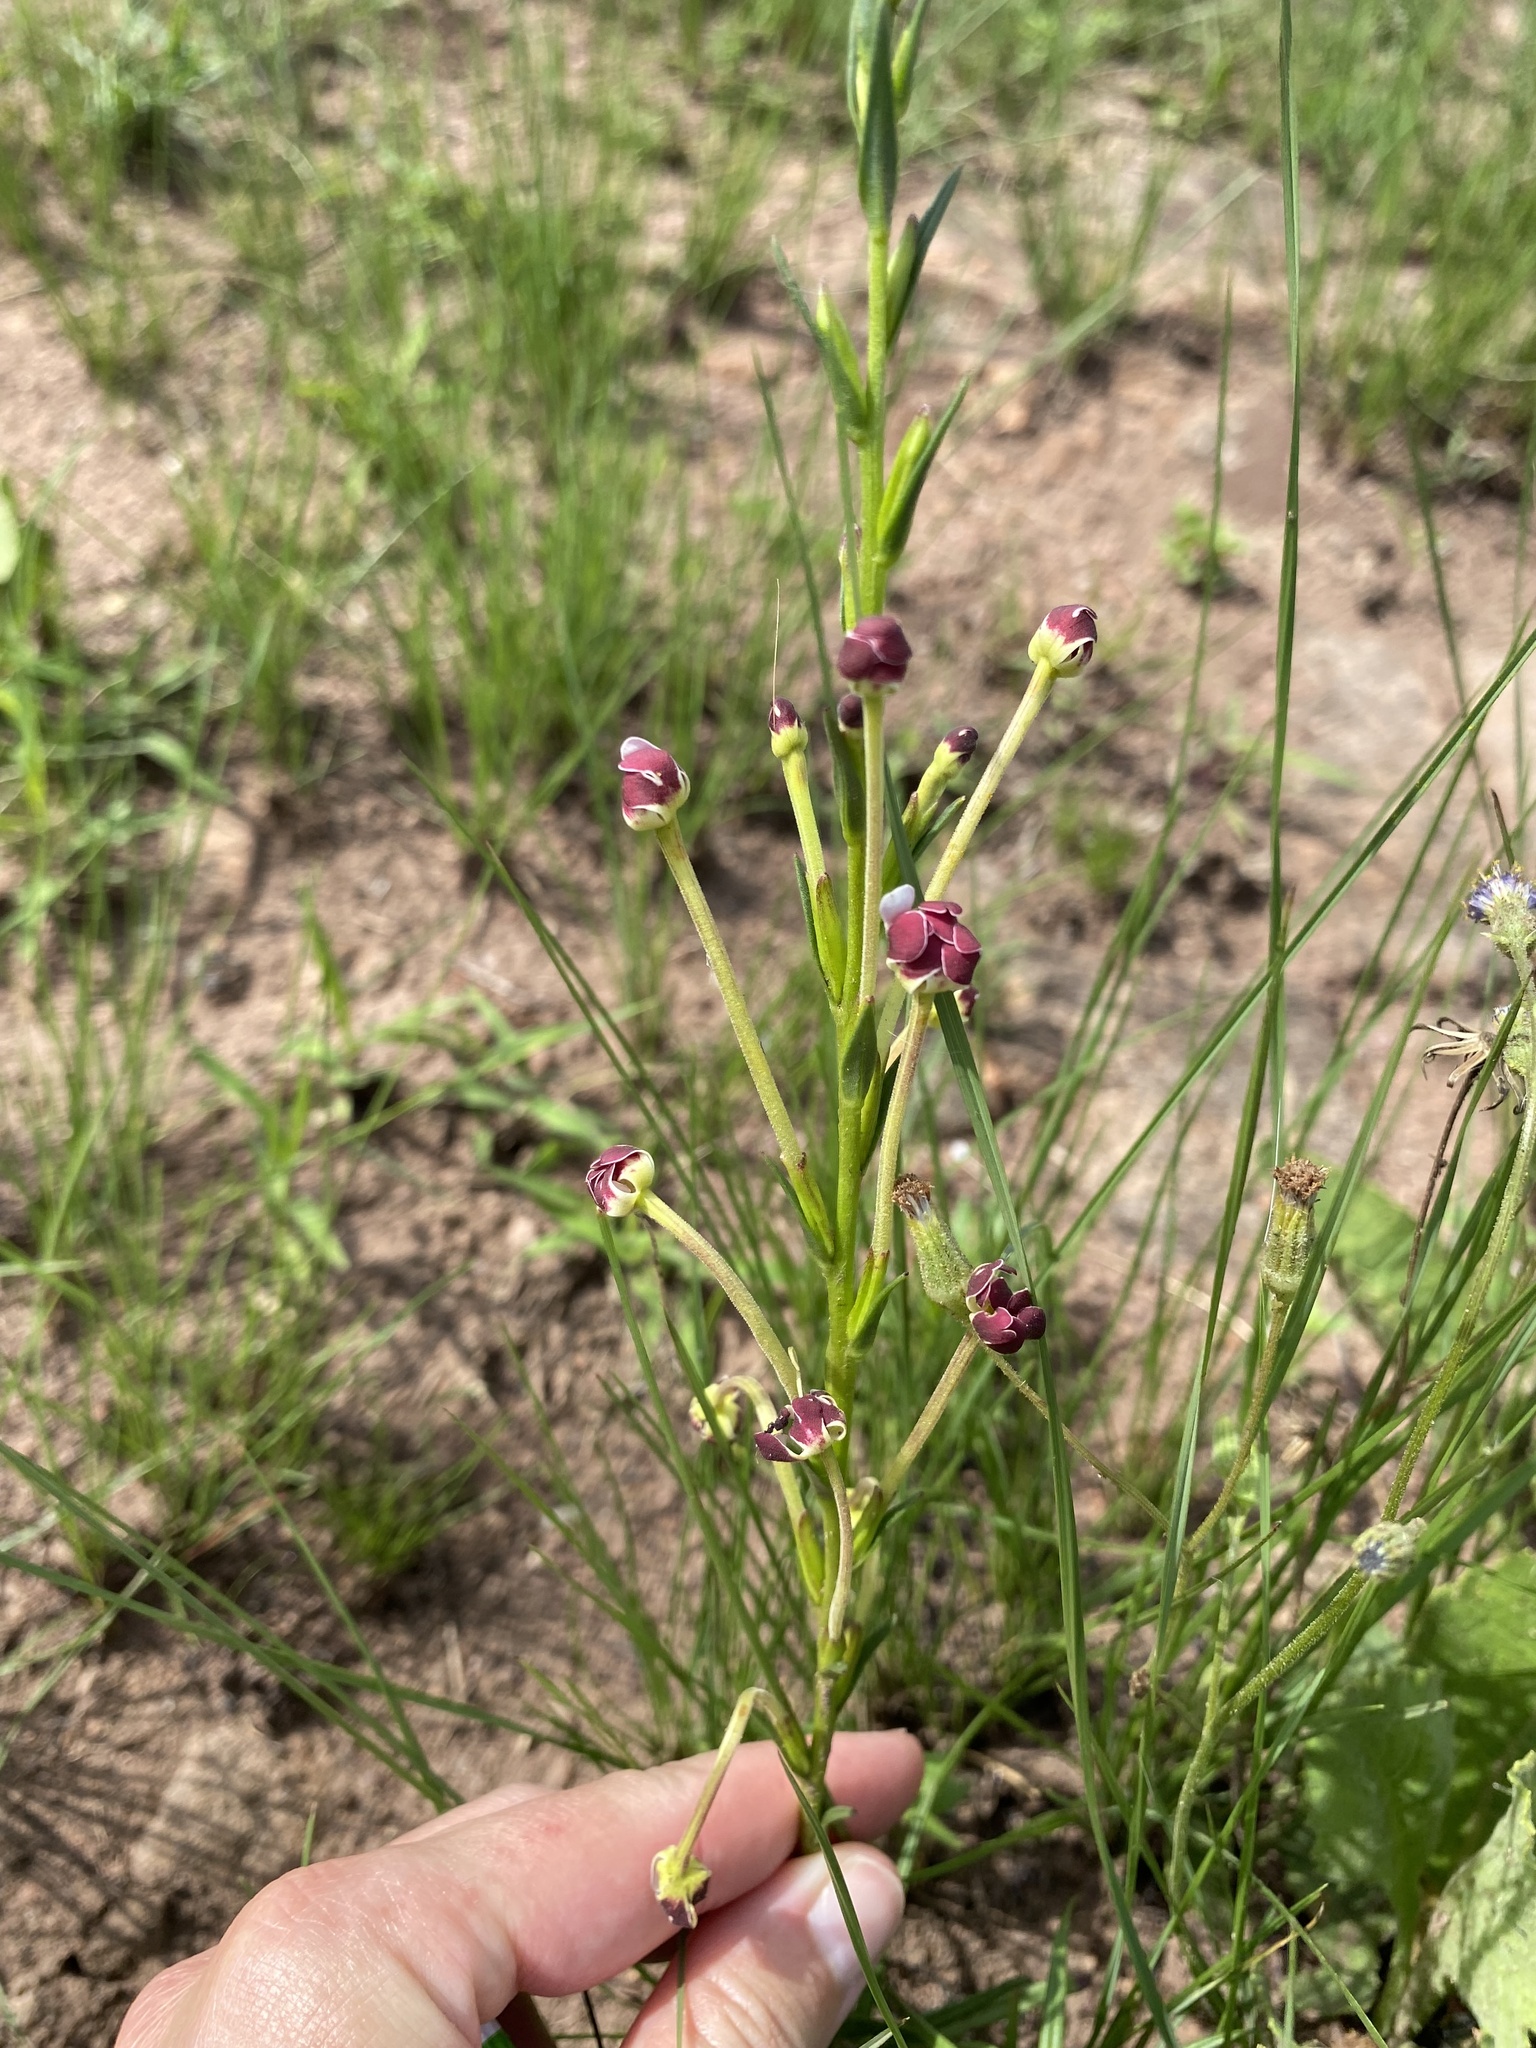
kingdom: Plantae
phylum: Tracheophyta
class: Magnoliopsida
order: Lamiales
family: Scrophulariaceae
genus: Zaluzianskya
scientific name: Zaluzianskya elongata
